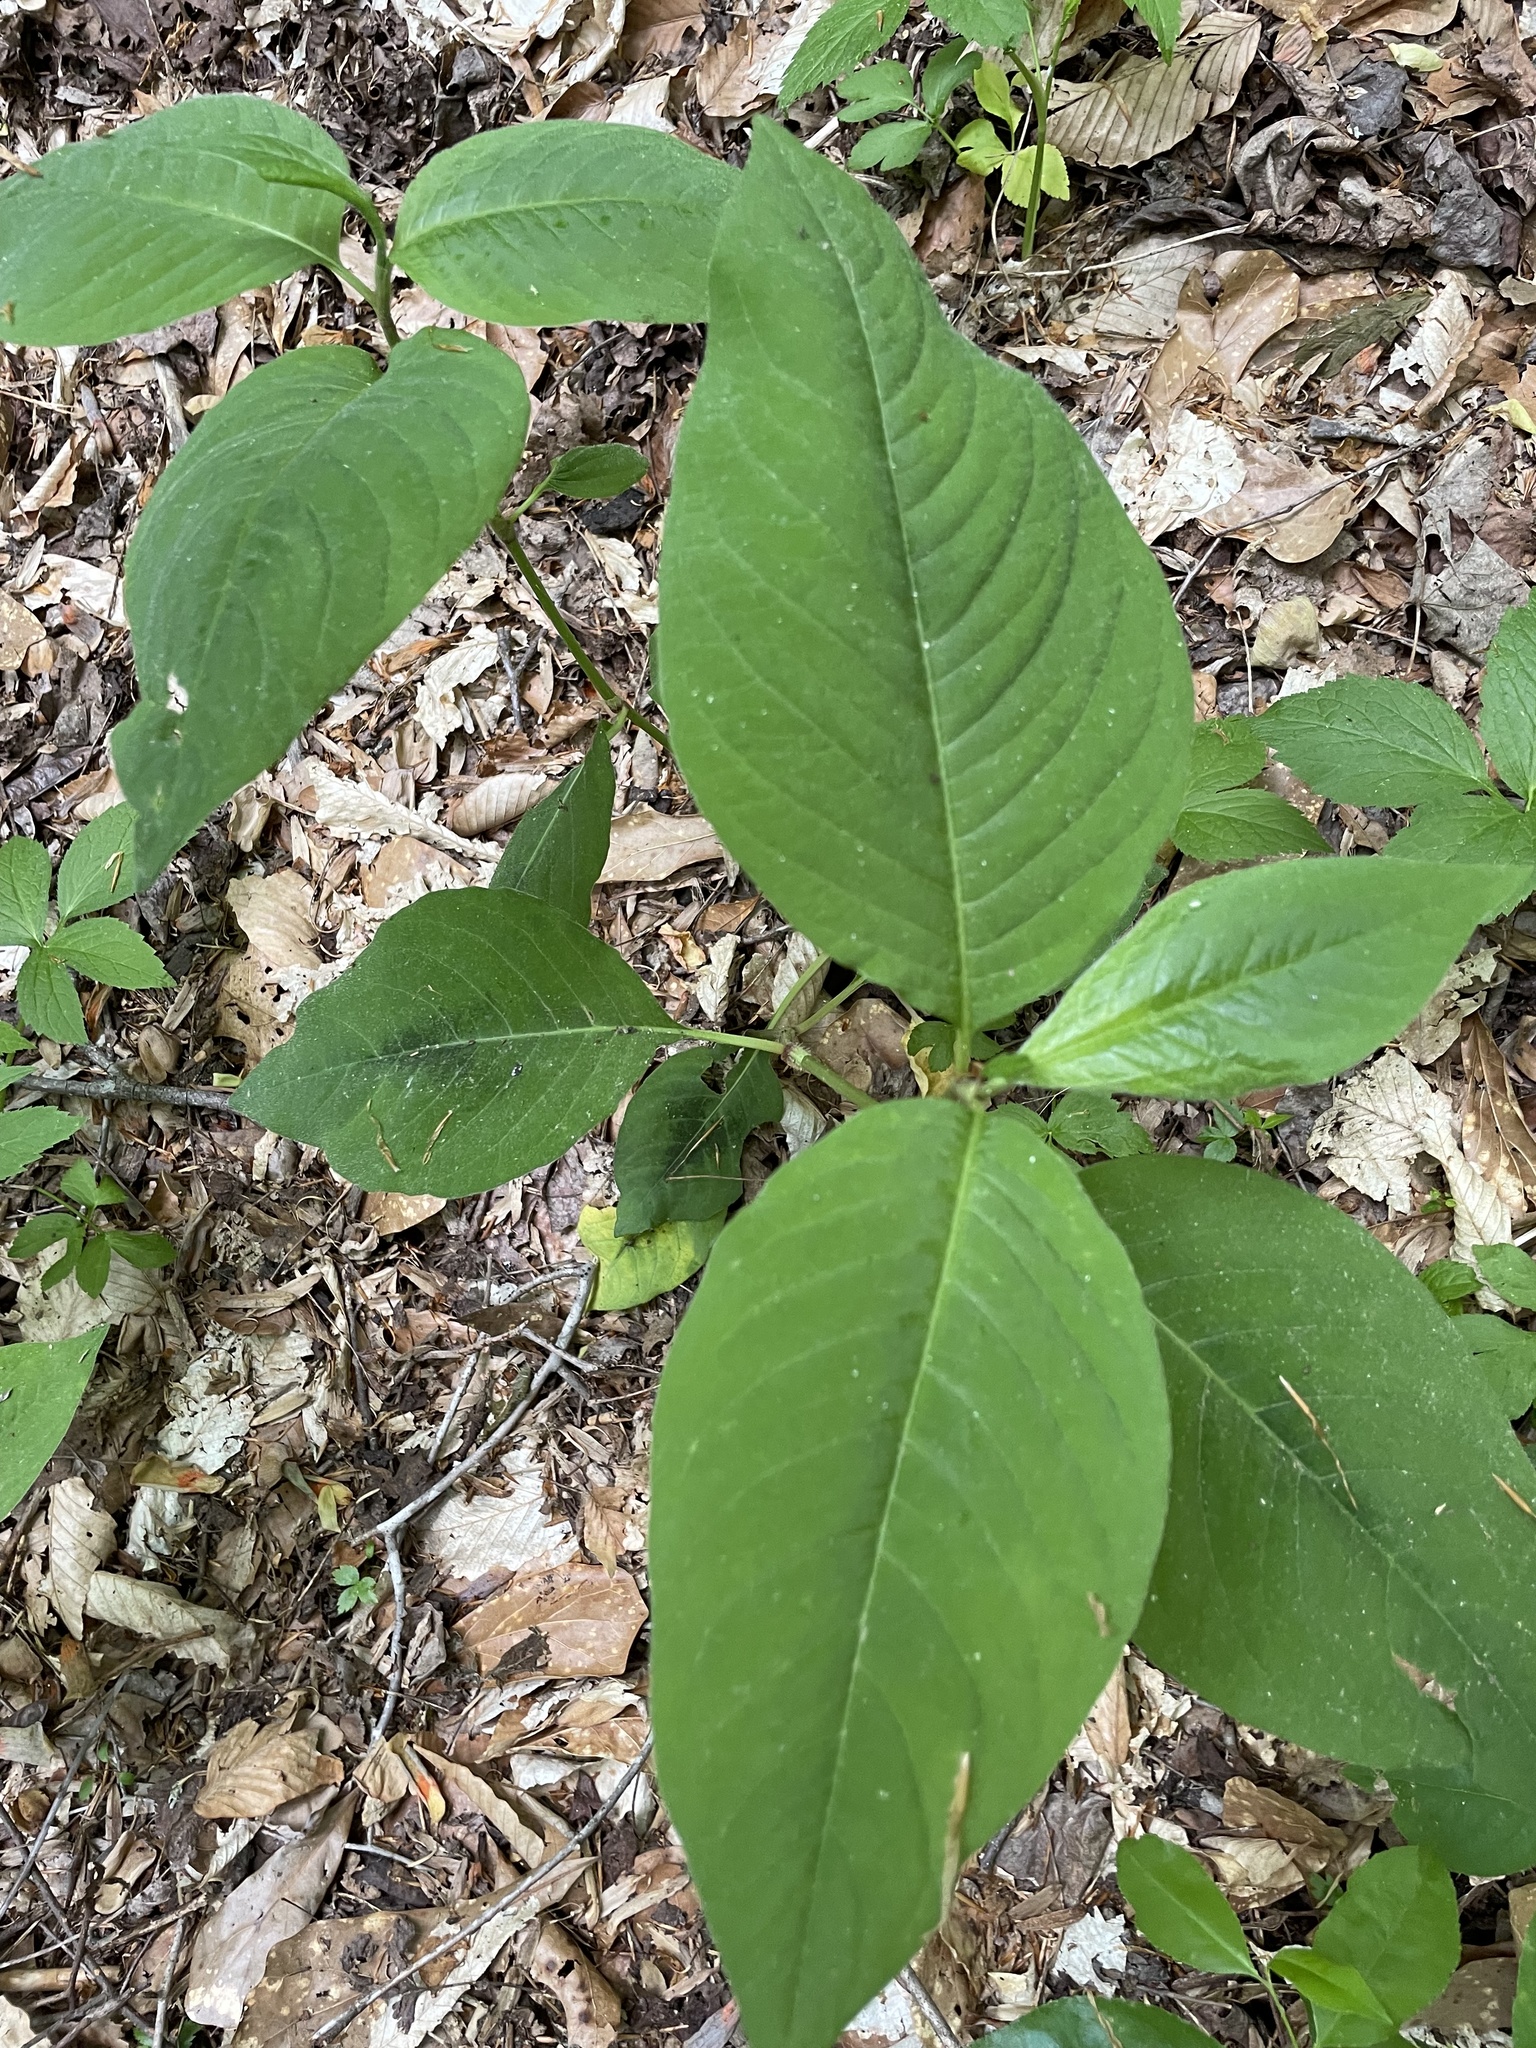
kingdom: Plantae
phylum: Tracheophyta
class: Magnoliopsida
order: Caryophyllales
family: Polygonaceae
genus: Persicaria
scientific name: Persicaria virginiana
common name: Jumpseed
